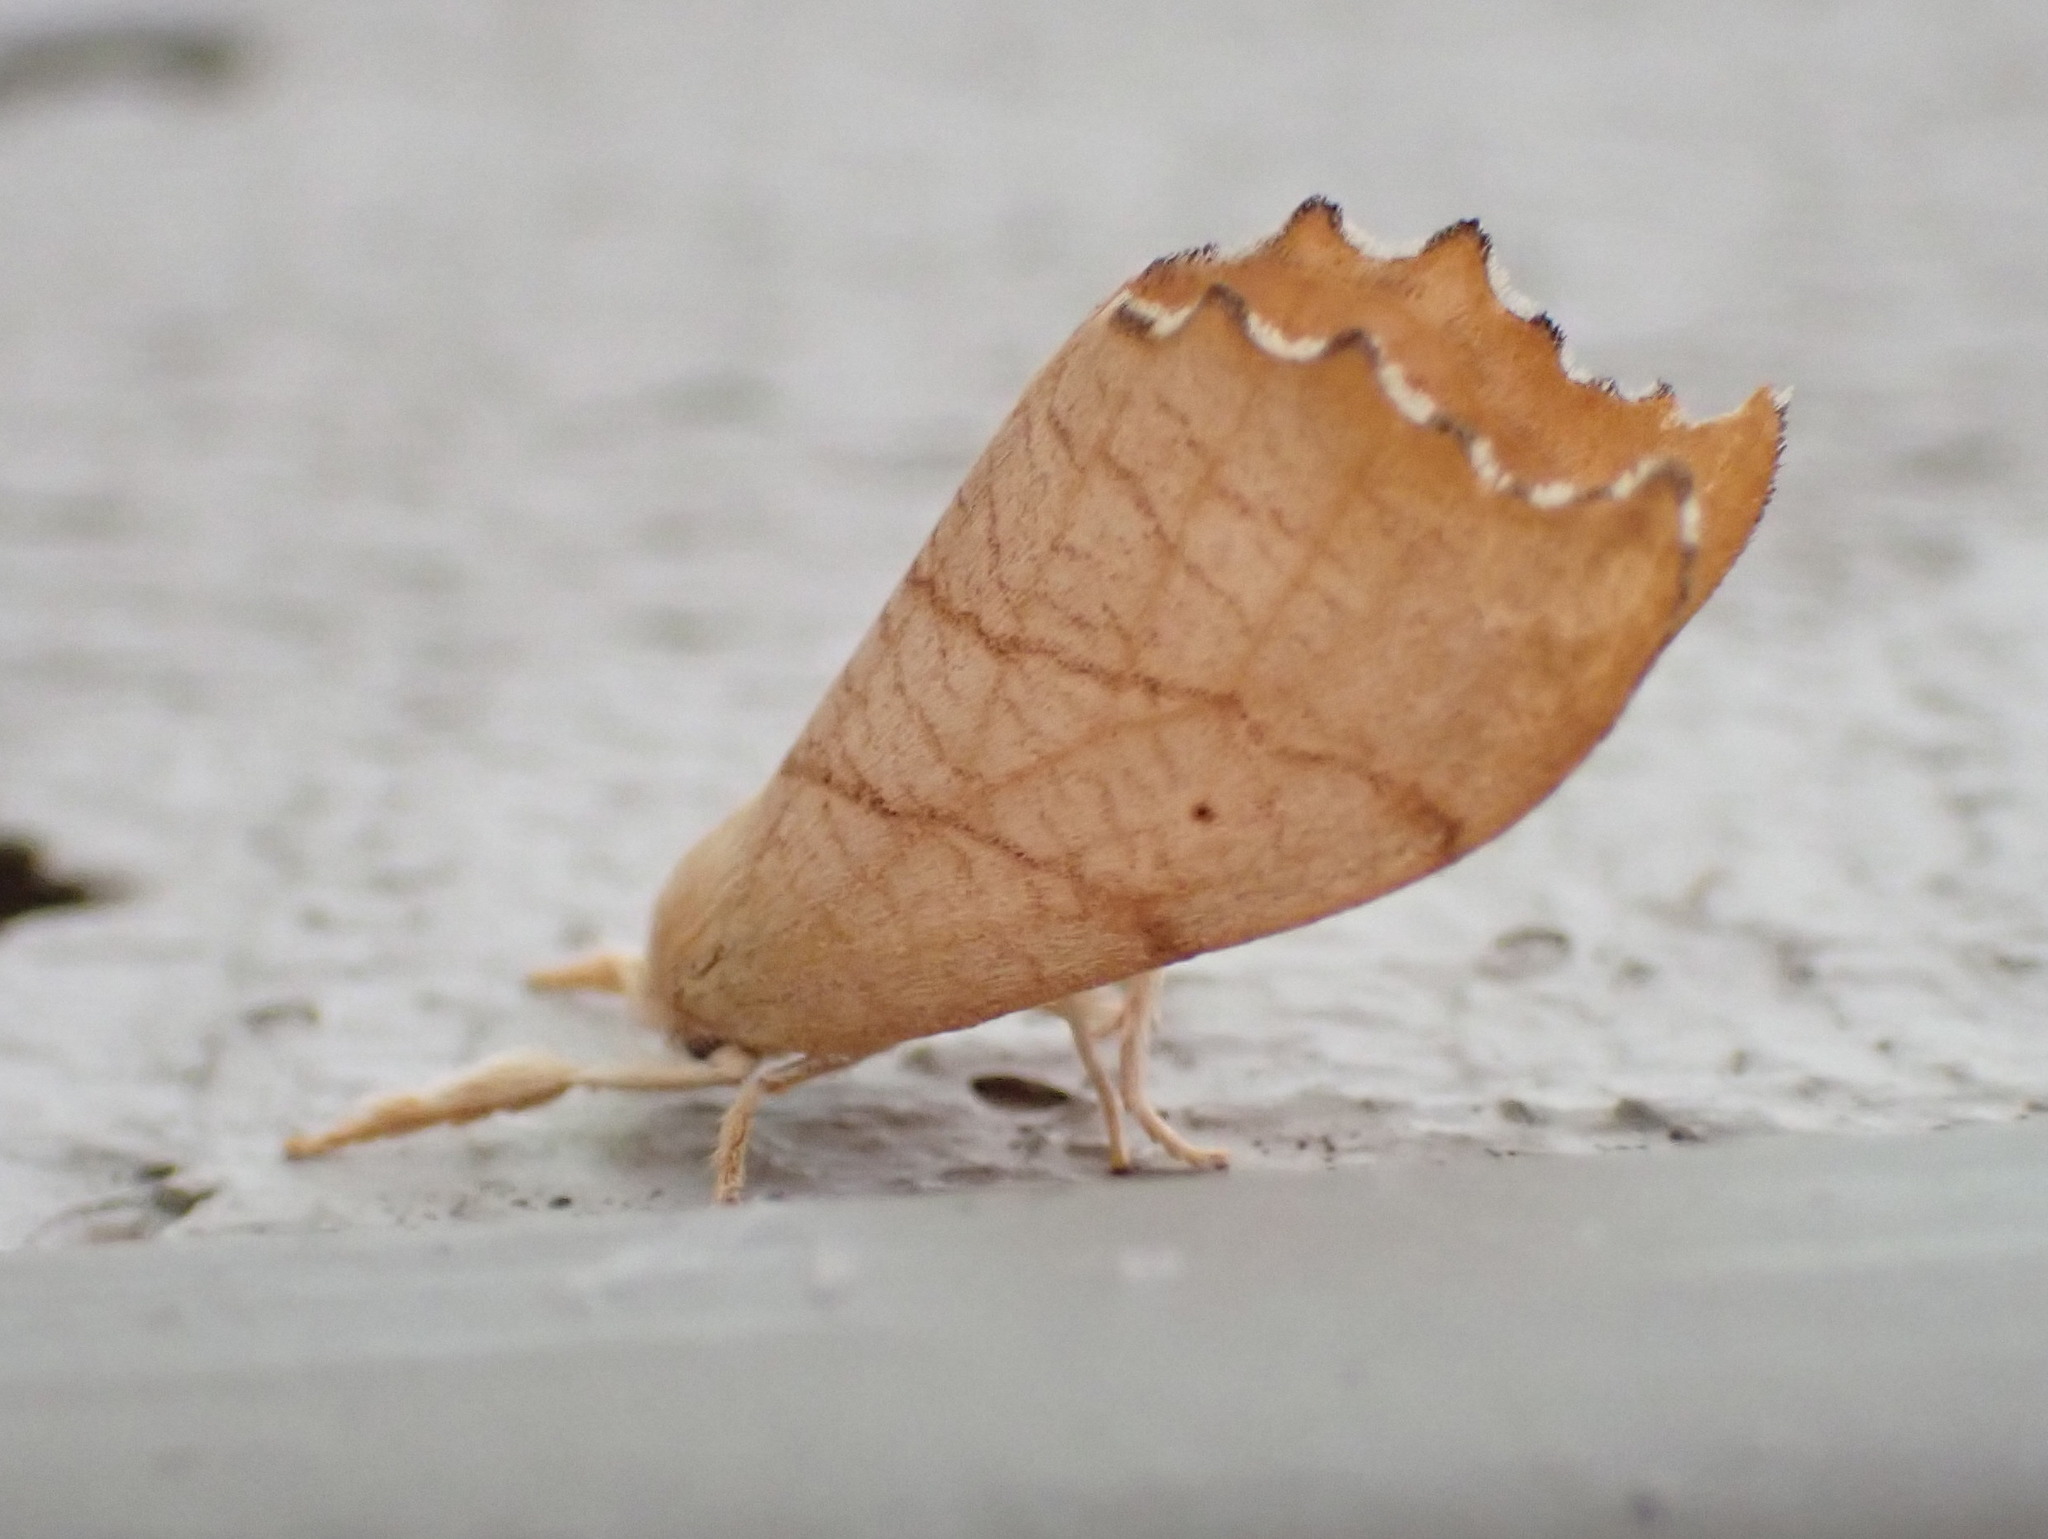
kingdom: Animalia
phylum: Arthropoda
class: Insecta
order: Lepidoptera
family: Drepanidae
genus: Falcaria
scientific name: Falcaria bilineata
